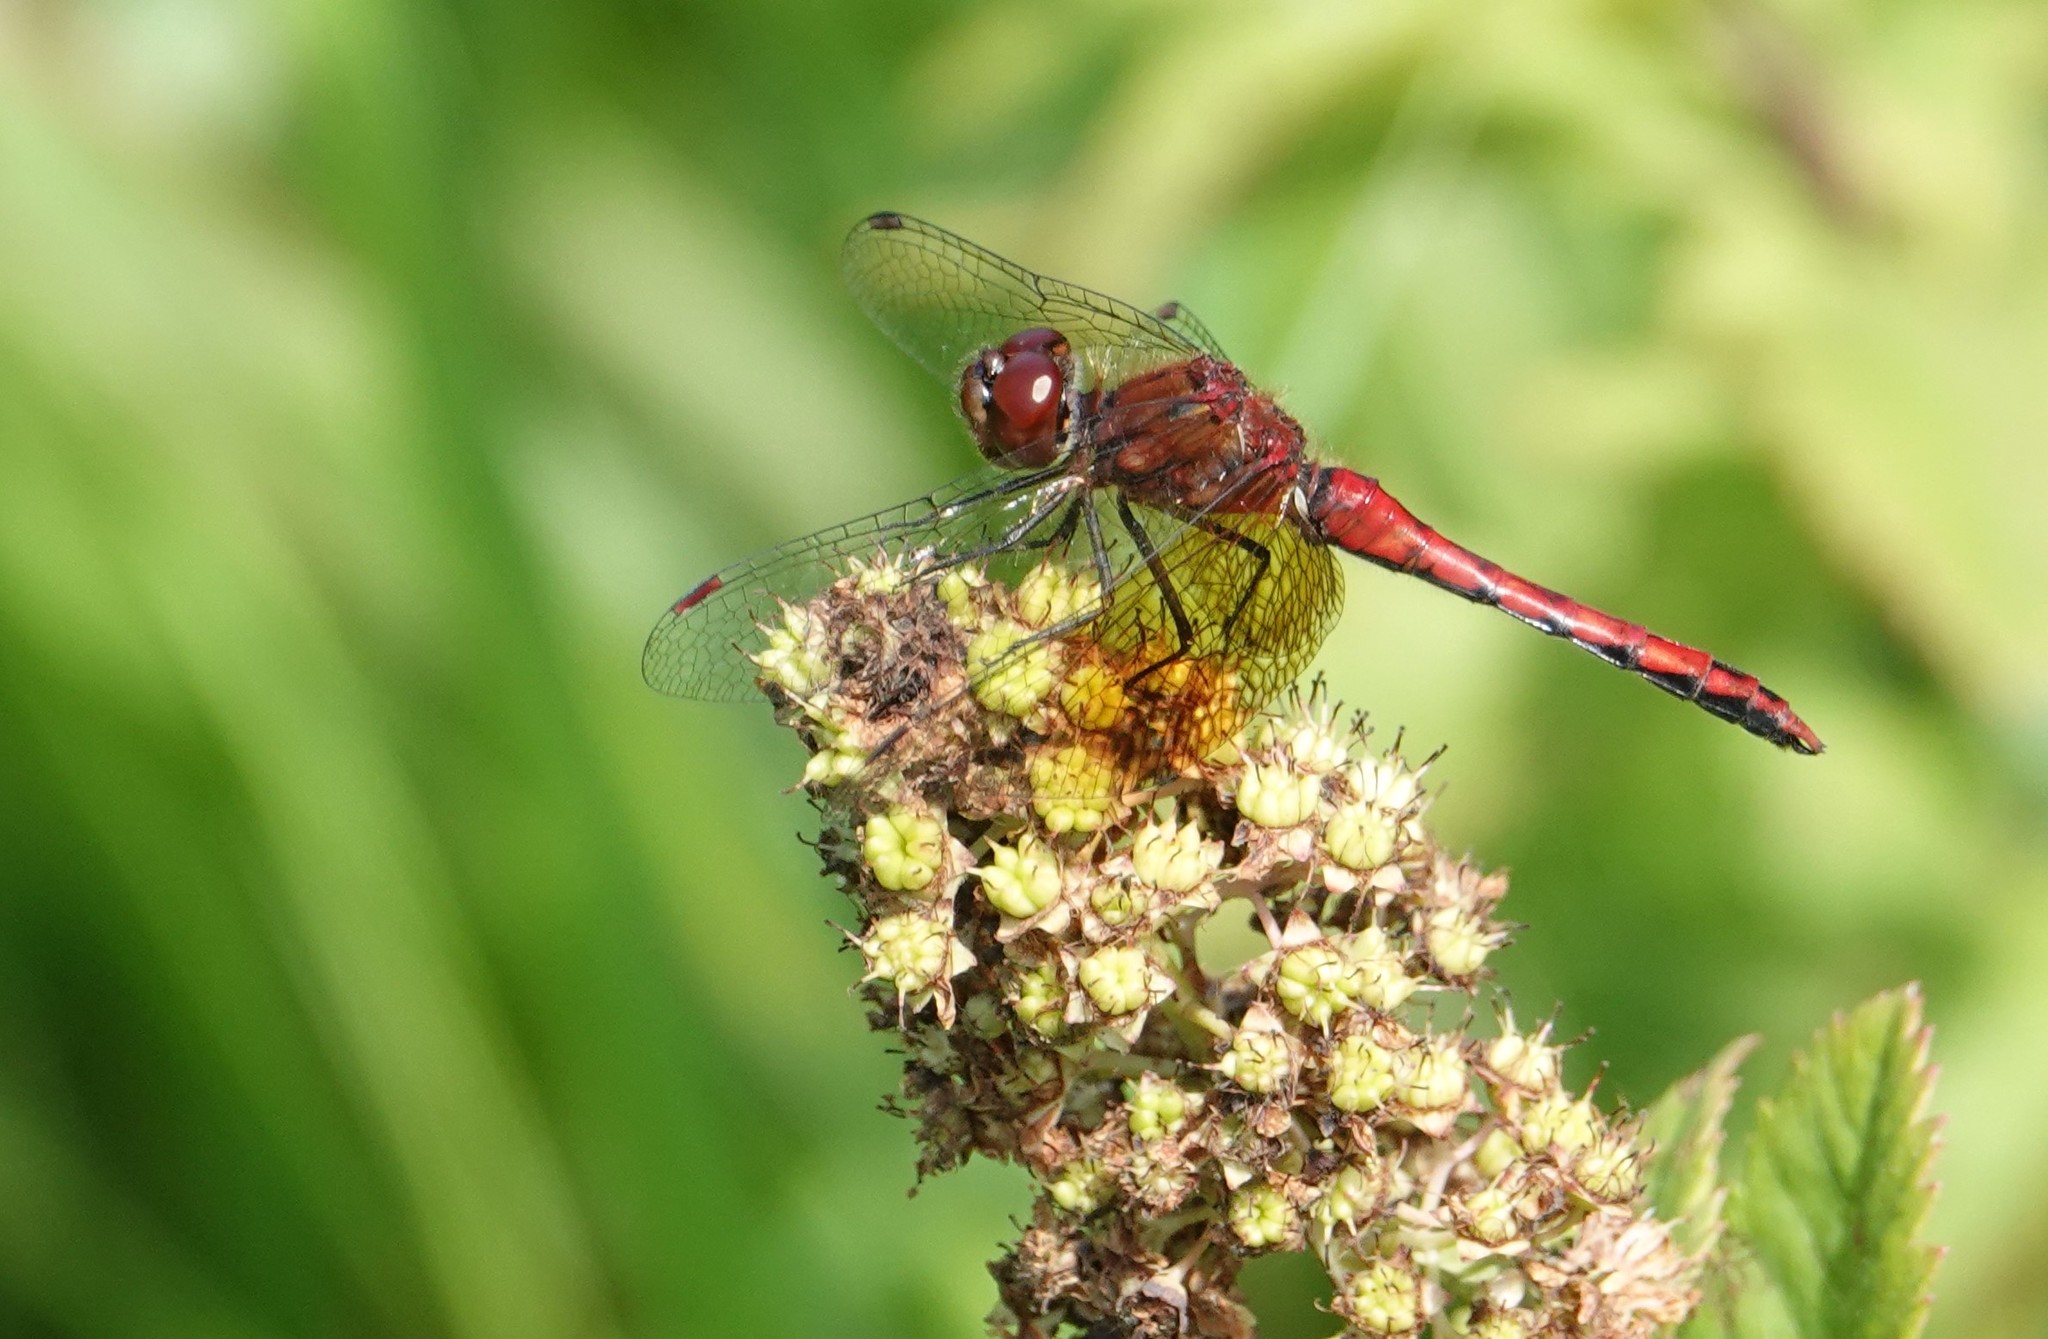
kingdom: Animalia
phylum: Arthropoda
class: Insecta
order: Odonata
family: Libellulidae
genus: Sympetrum
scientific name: Sympetrum semicinctum
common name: Band-winged meadowhawk
